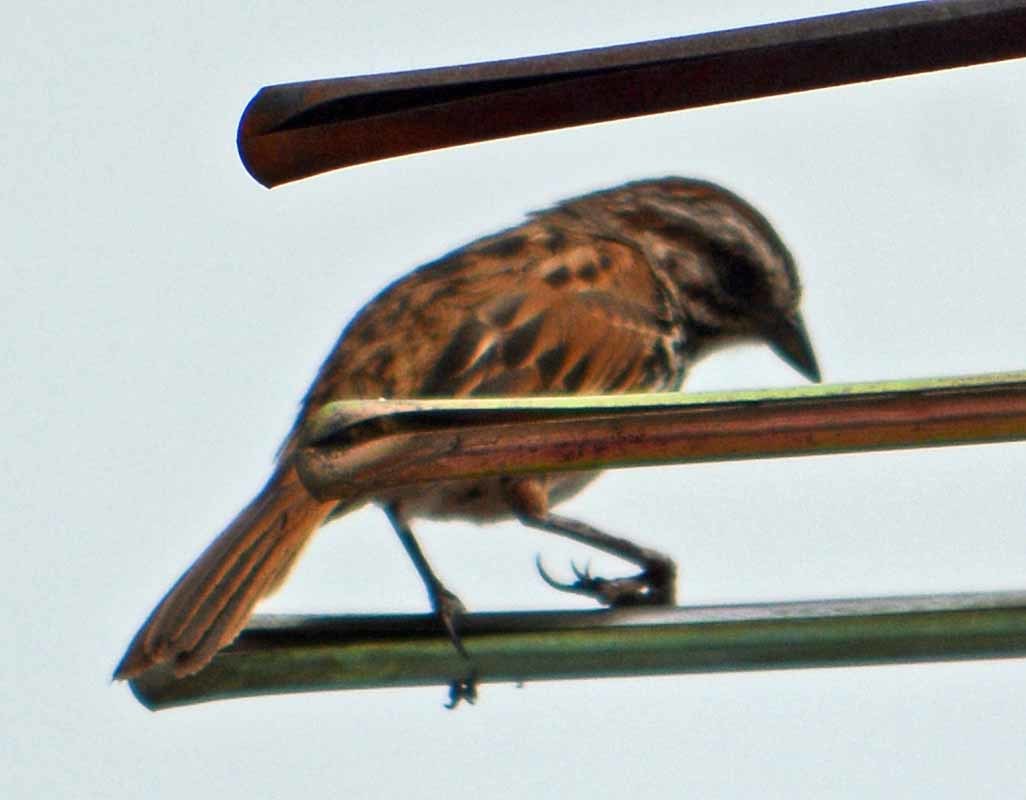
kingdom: Animalia
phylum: Chordata
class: Aves
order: Passeriformes
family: Passerellidae
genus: Melospiza
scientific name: Melospiza melodia
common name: Song sparrow
